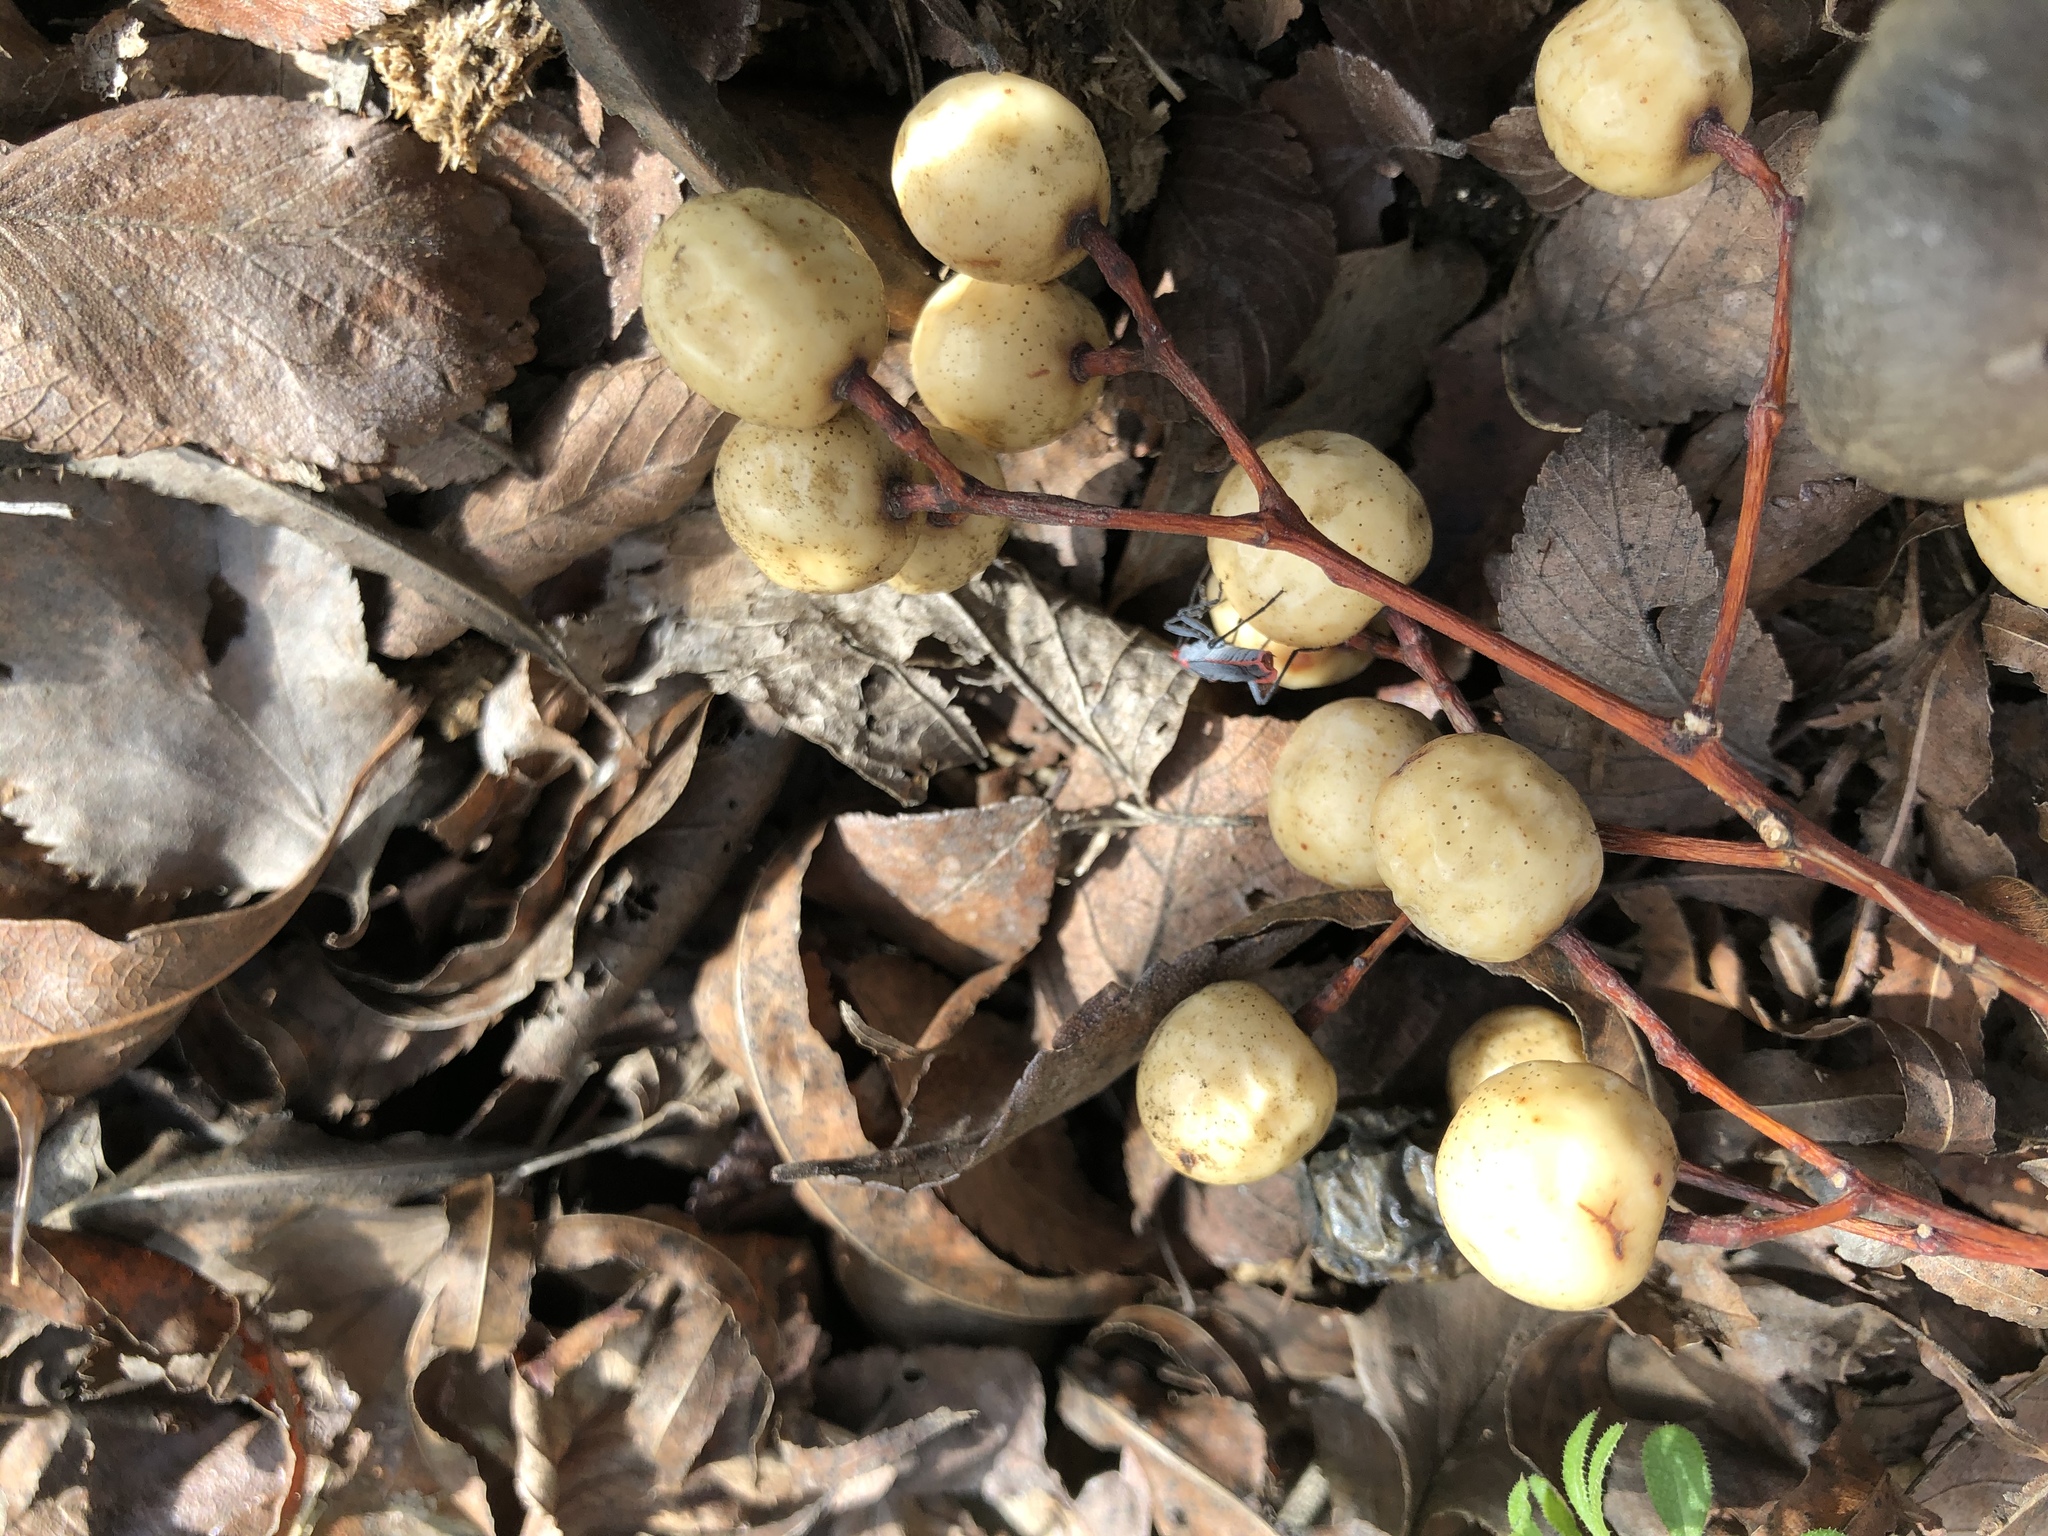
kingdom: Plantae
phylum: Tracheophyta
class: Magnoliopsida
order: Sapindales
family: Meliaceae
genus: Melia
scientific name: Melia azedarach
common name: Chinaberrytree
